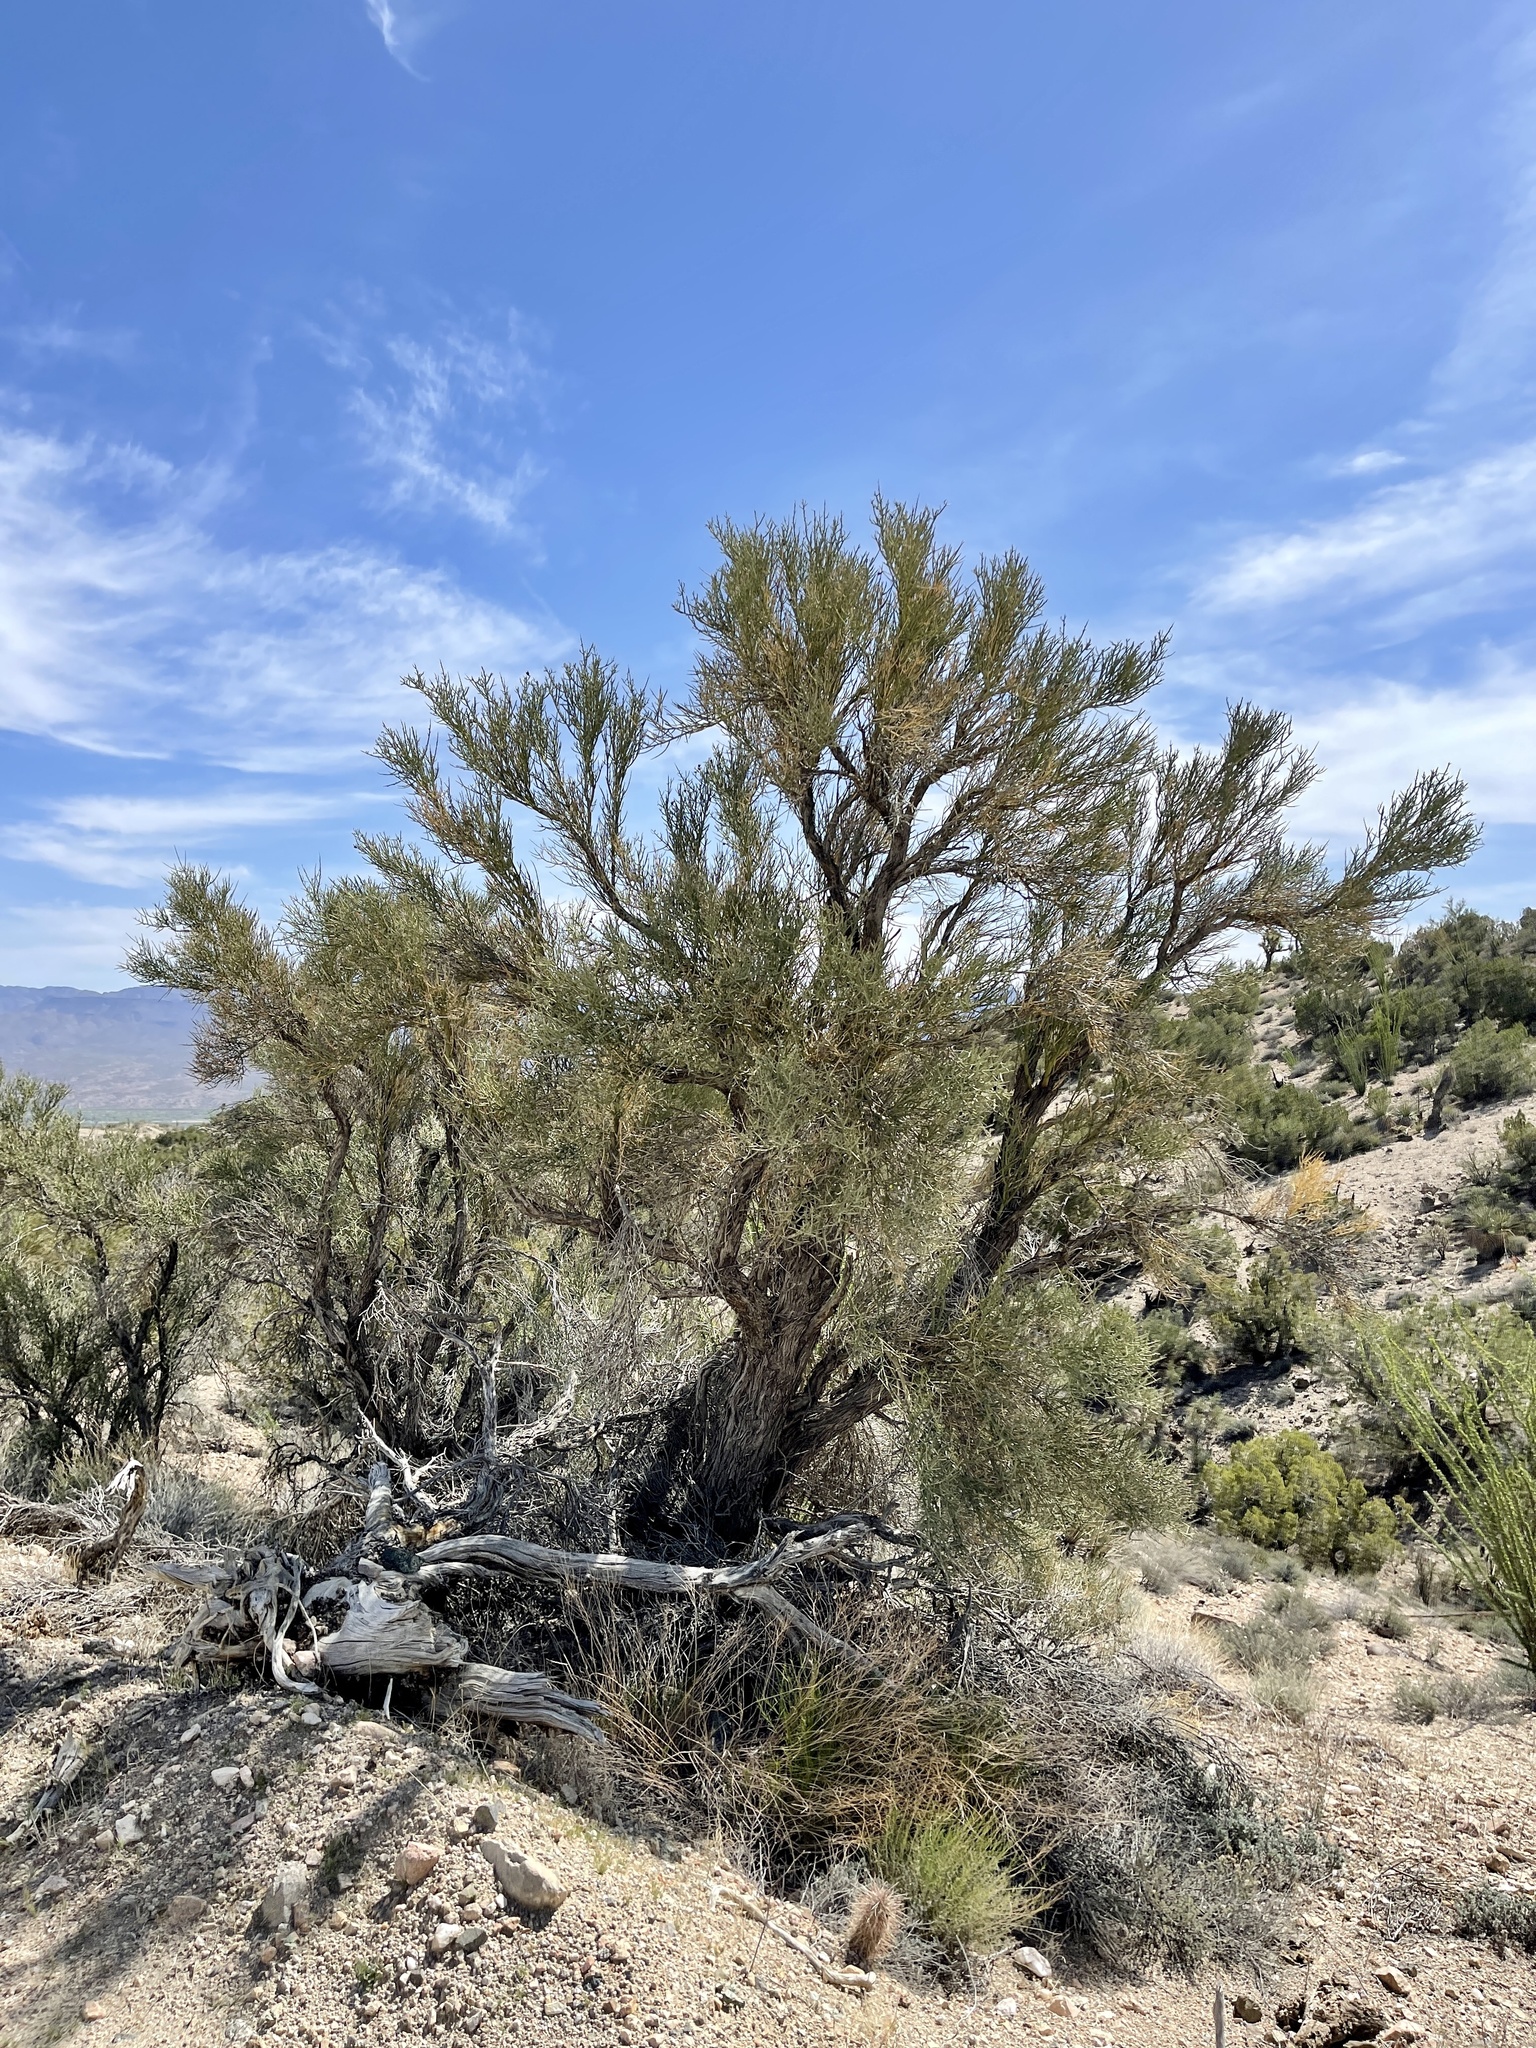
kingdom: Plantae
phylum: Tracheophyta
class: Magnoliopsida
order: Celastrales
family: Celastraceae
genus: Canotia
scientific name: Canotia holacantha
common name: Crucifixion thorns
